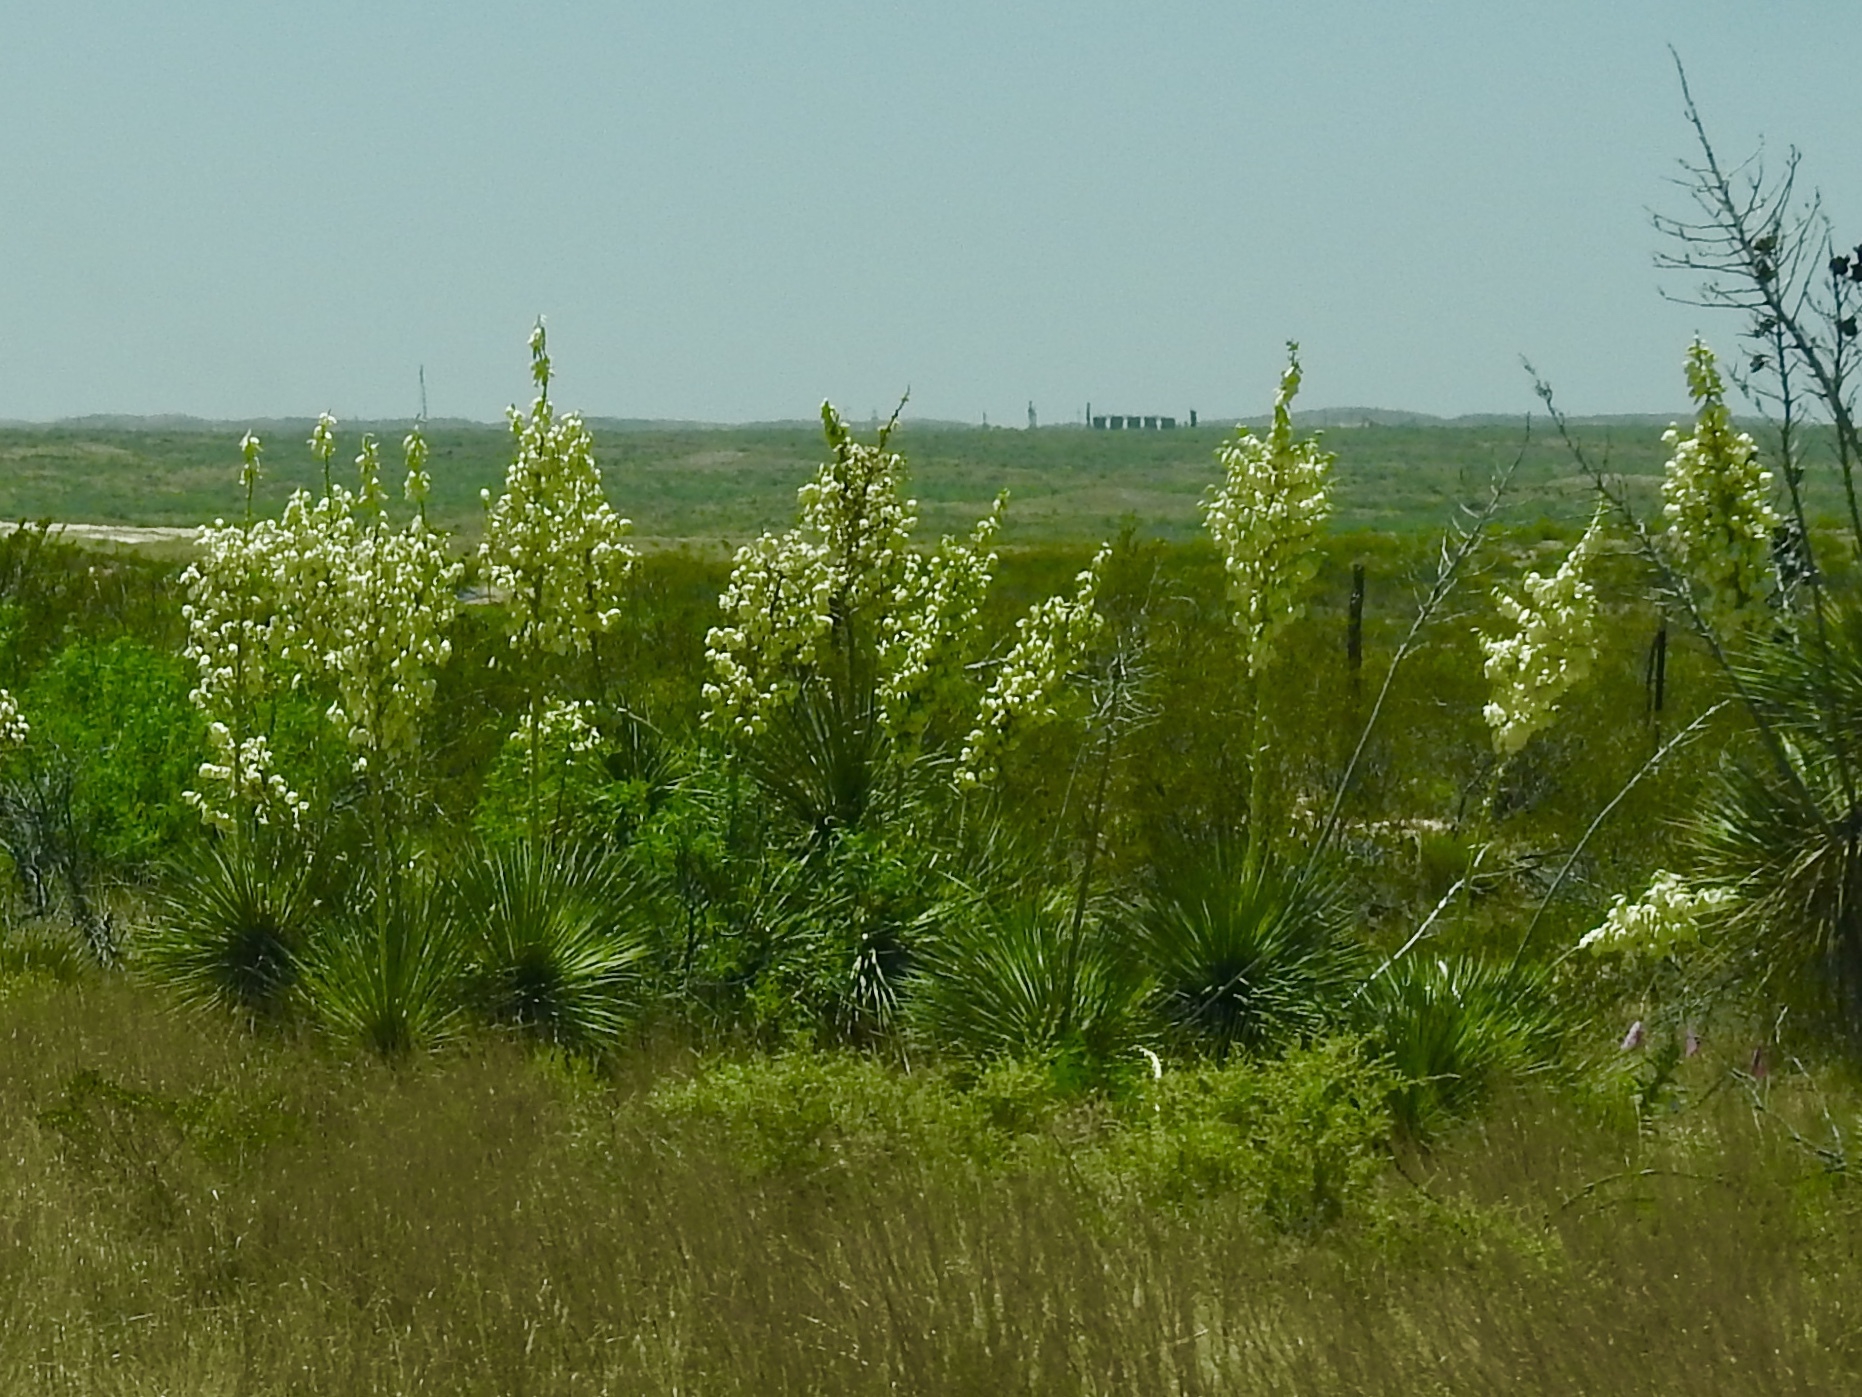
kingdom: Plantae
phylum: Tracheophyta
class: Liliopsida
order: Asparagales
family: Asparagaceae
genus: Yucca
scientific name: Yucca elata
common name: Palmella
